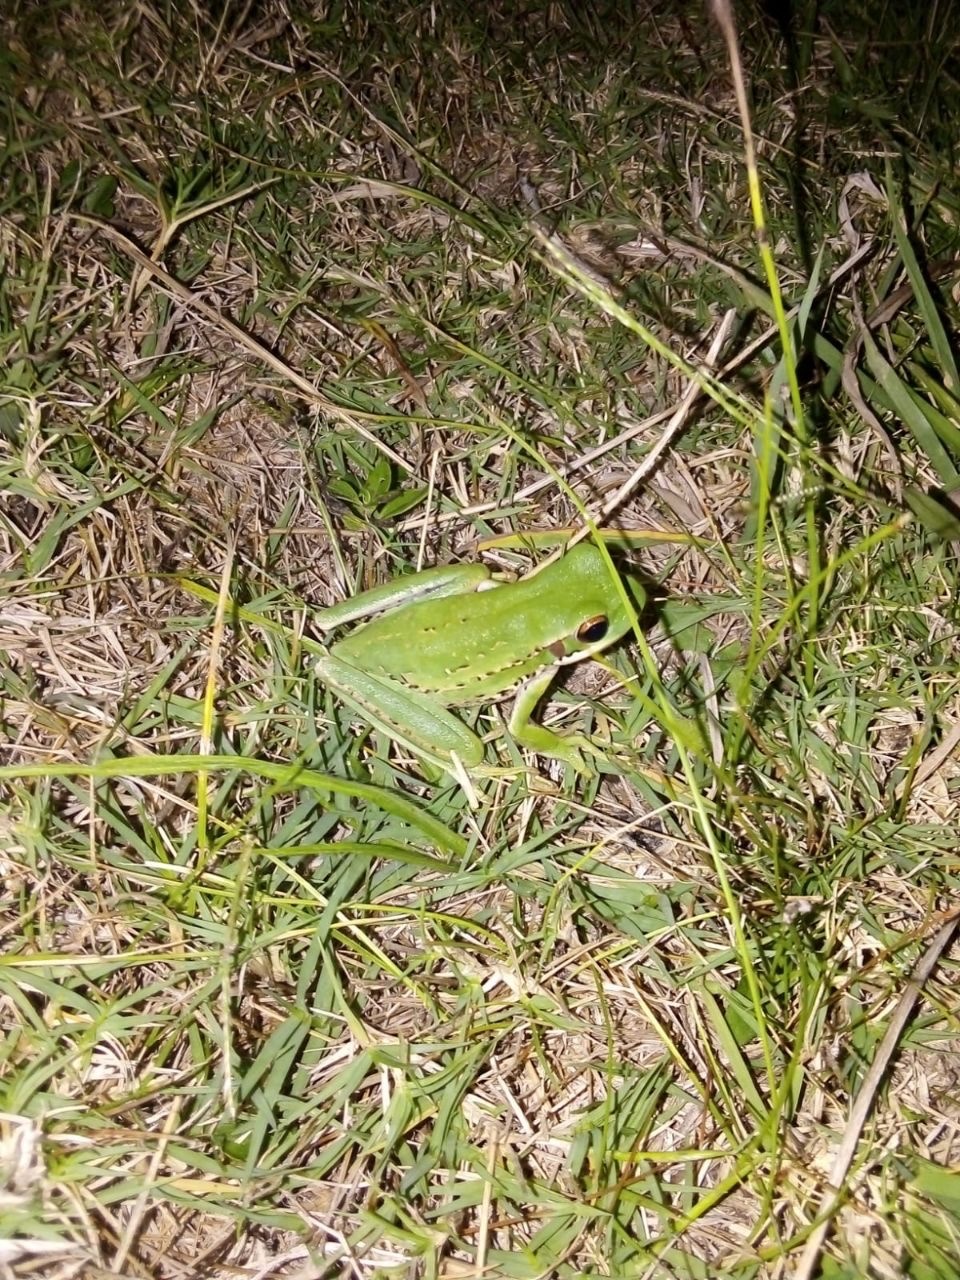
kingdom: Animalia
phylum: Chordata
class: Amphibia
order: Anura
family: Hylidae
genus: Boana
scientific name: Boana pulchella
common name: Montevideo treefrog
